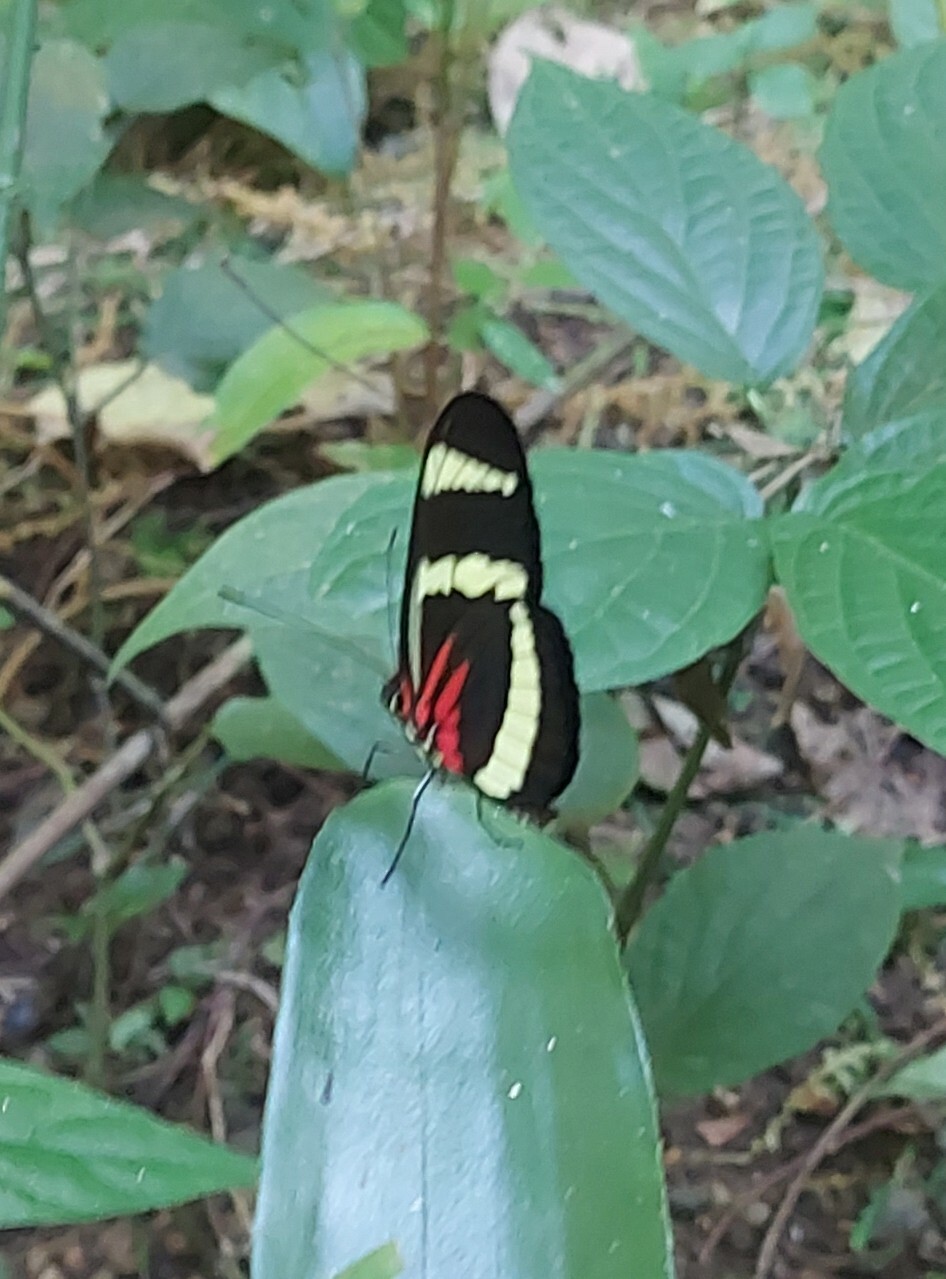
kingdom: Animalia
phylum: Arthropoda
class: Insecta
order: Lepidoptera
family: Nymphalidae
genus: Heliconius
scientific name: Heliconius hewitsoni
